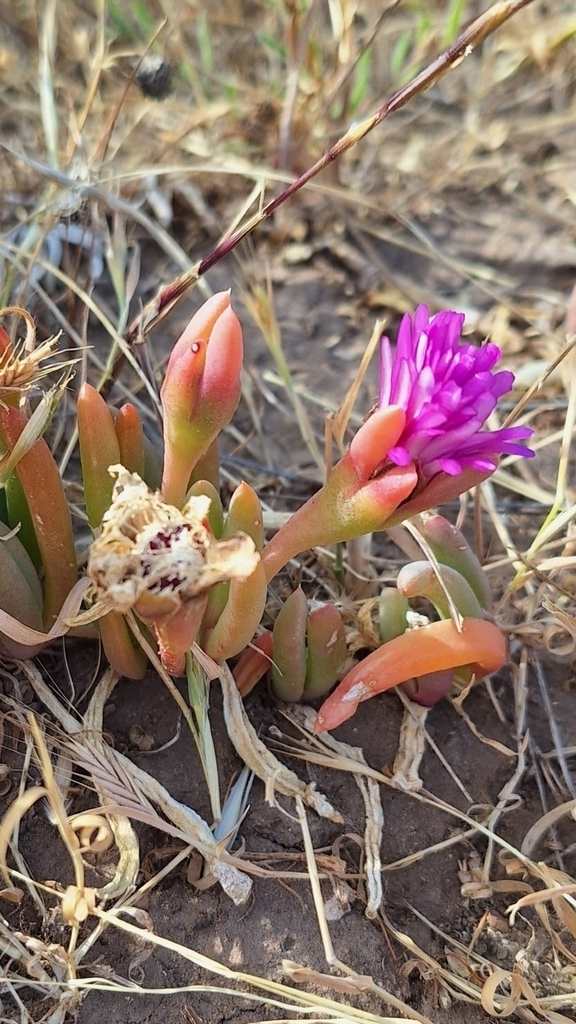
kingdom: Plantae
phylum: Tracheophyta
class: Magnoliopsida
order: Caryophyllales
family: Aizoaceae
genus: Disphyma
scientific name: Disphyma clavellatum
